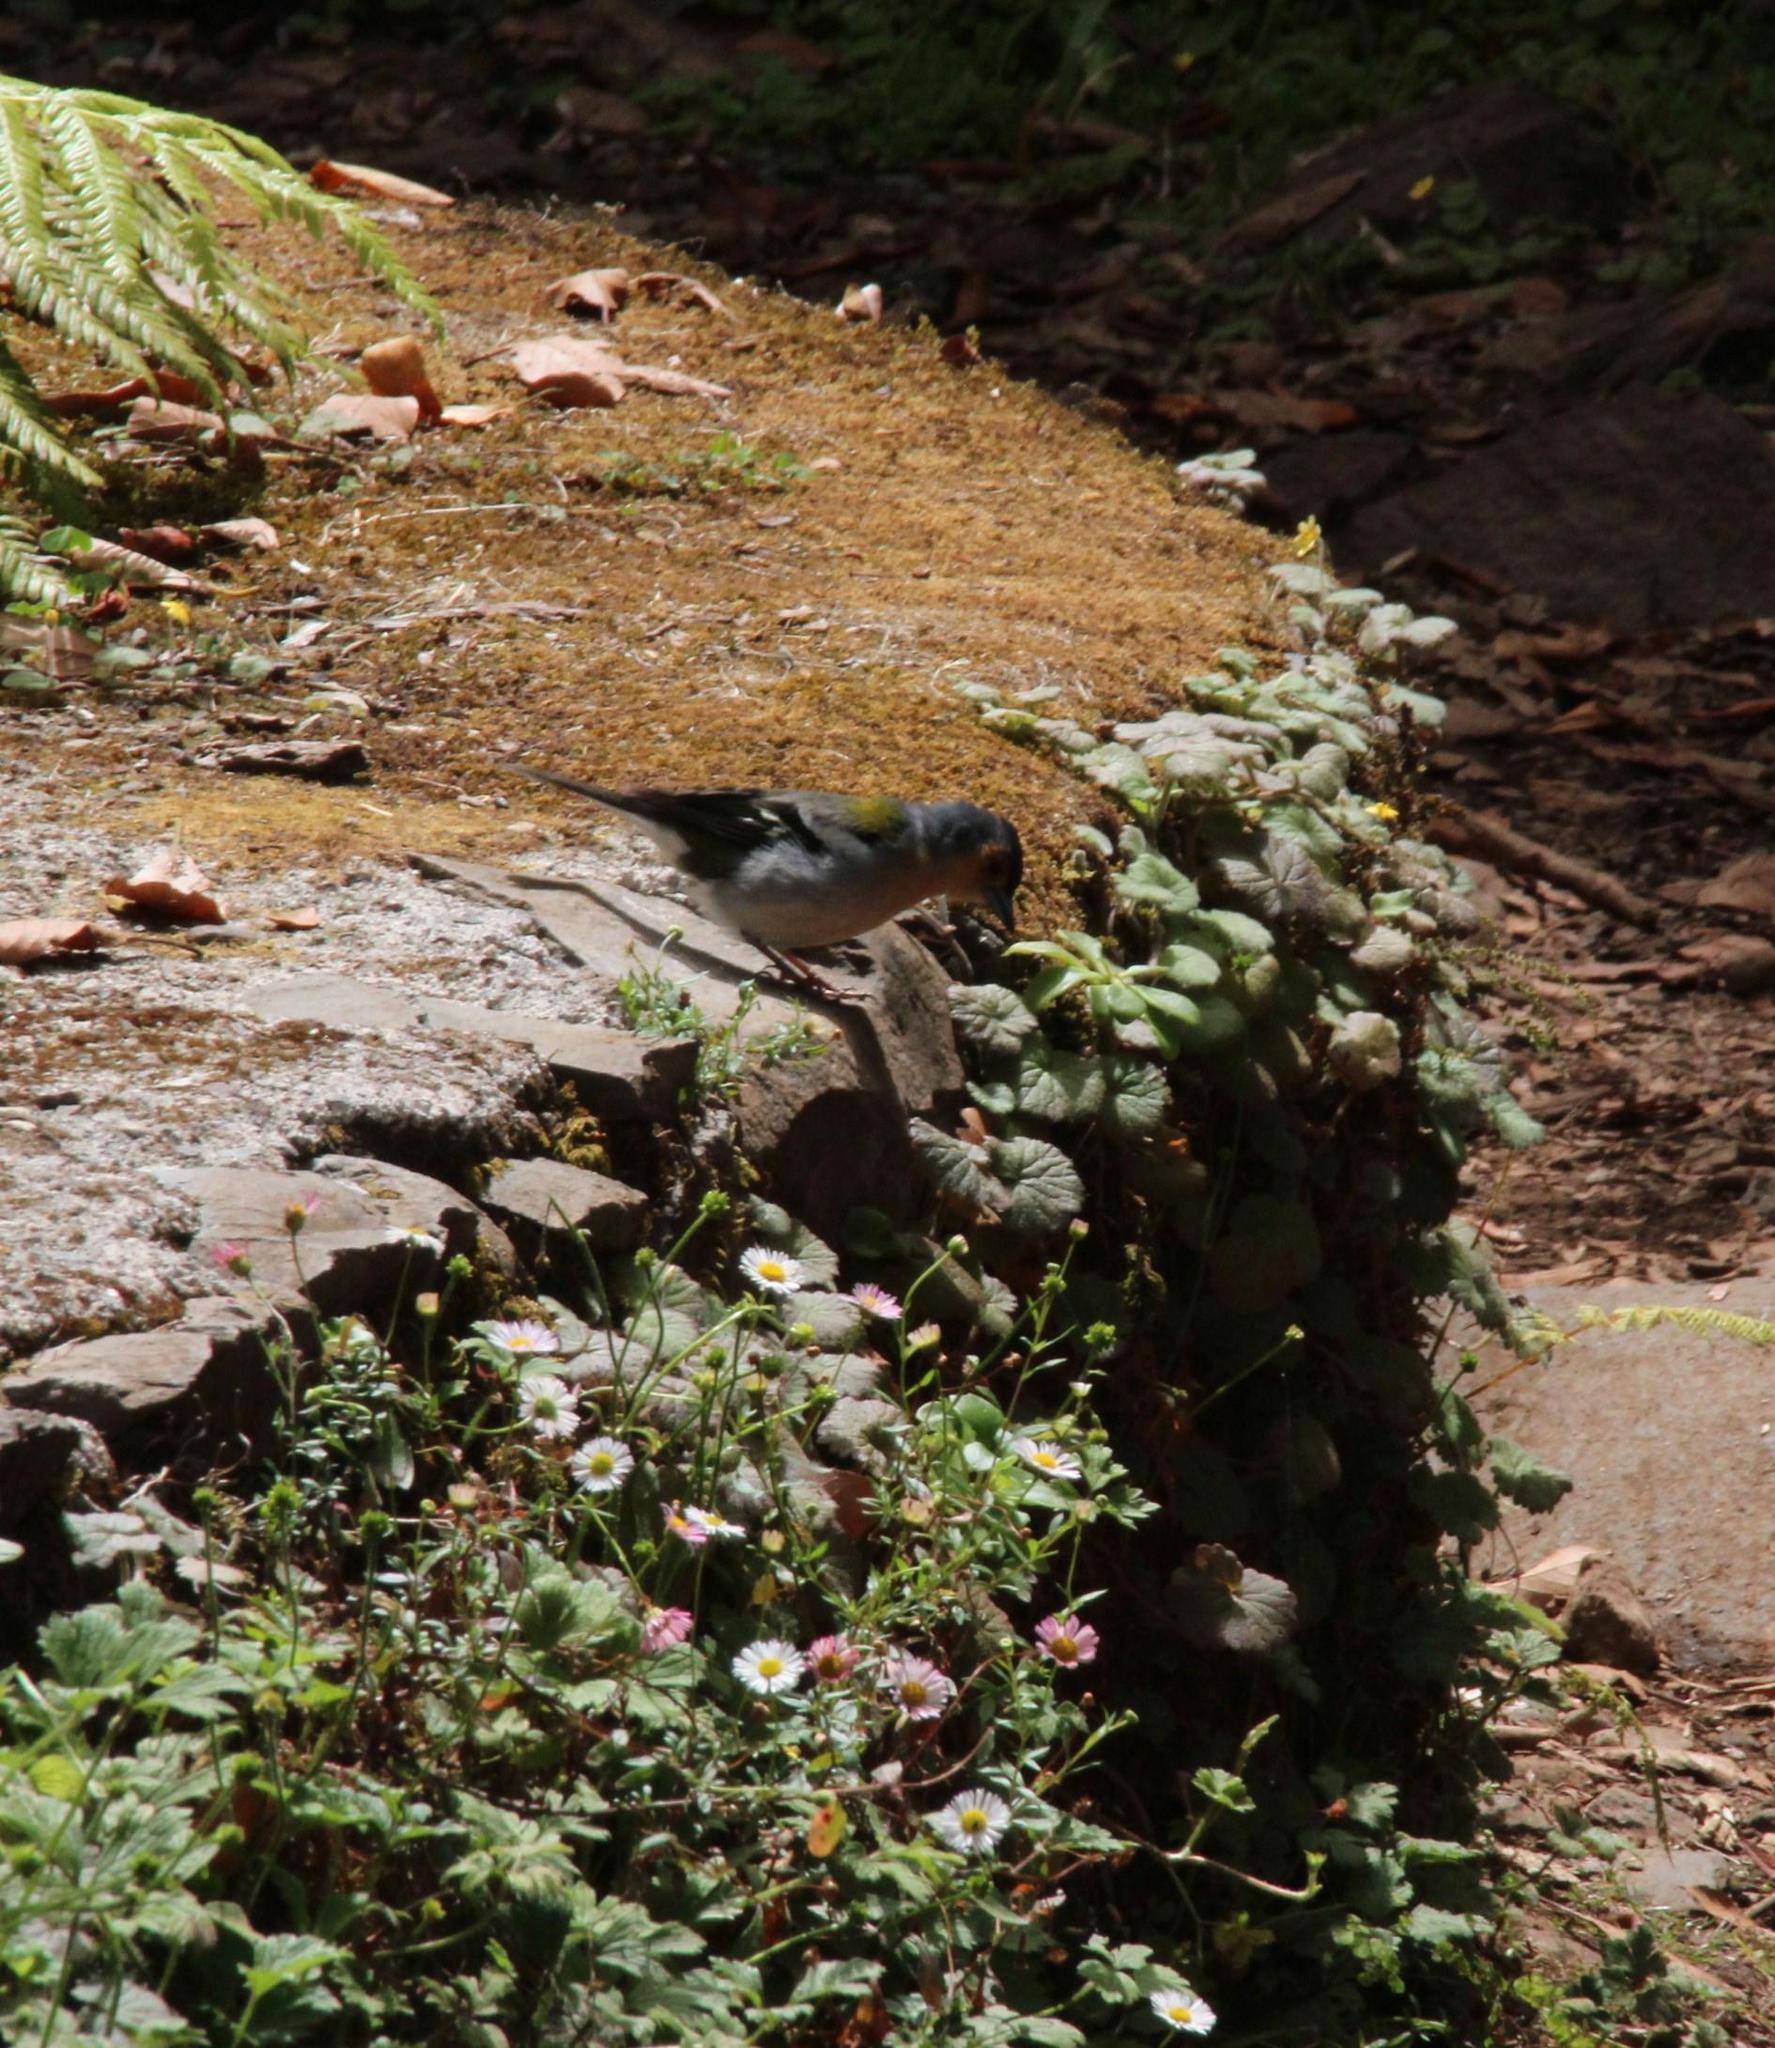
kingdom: Animalia
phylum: Chordata
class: Aves
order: Passeriformes
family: Fringillidae
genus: Fringilla
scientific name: Fringilla maderensis
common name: Madeira chaffinch
